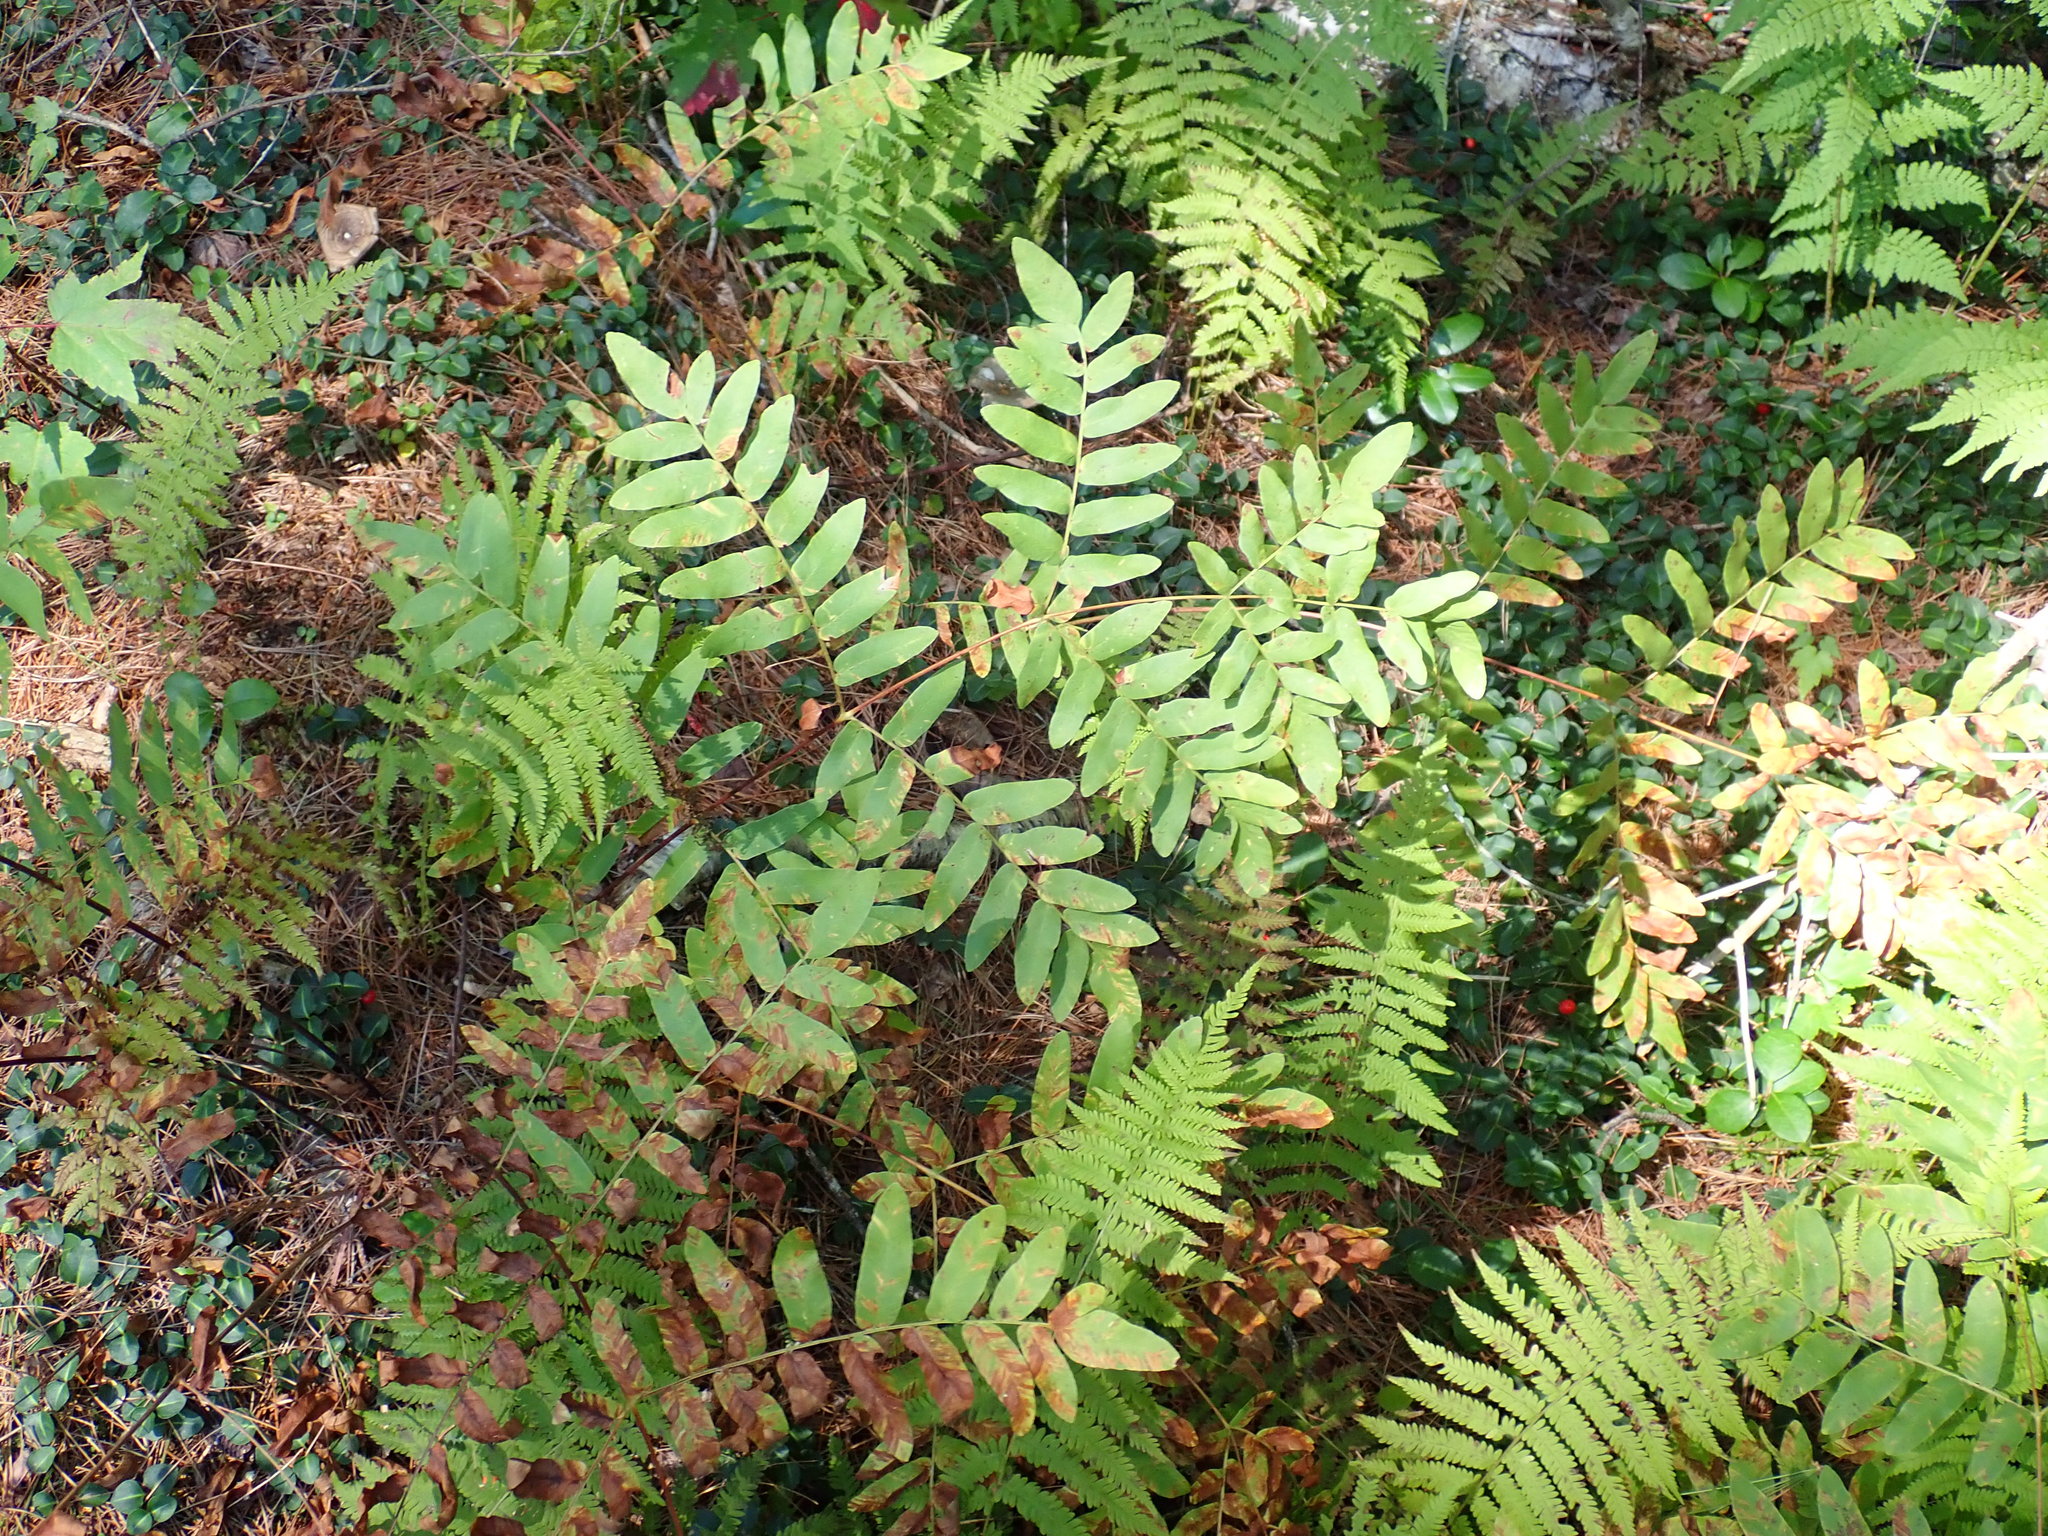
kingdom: Plantae
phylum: Tracheophyta
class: Polypodiopsida
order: Osmundales
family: Osmundaceae
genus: Osmunda
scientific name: Osmunda spectabilis
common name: American royal fern
